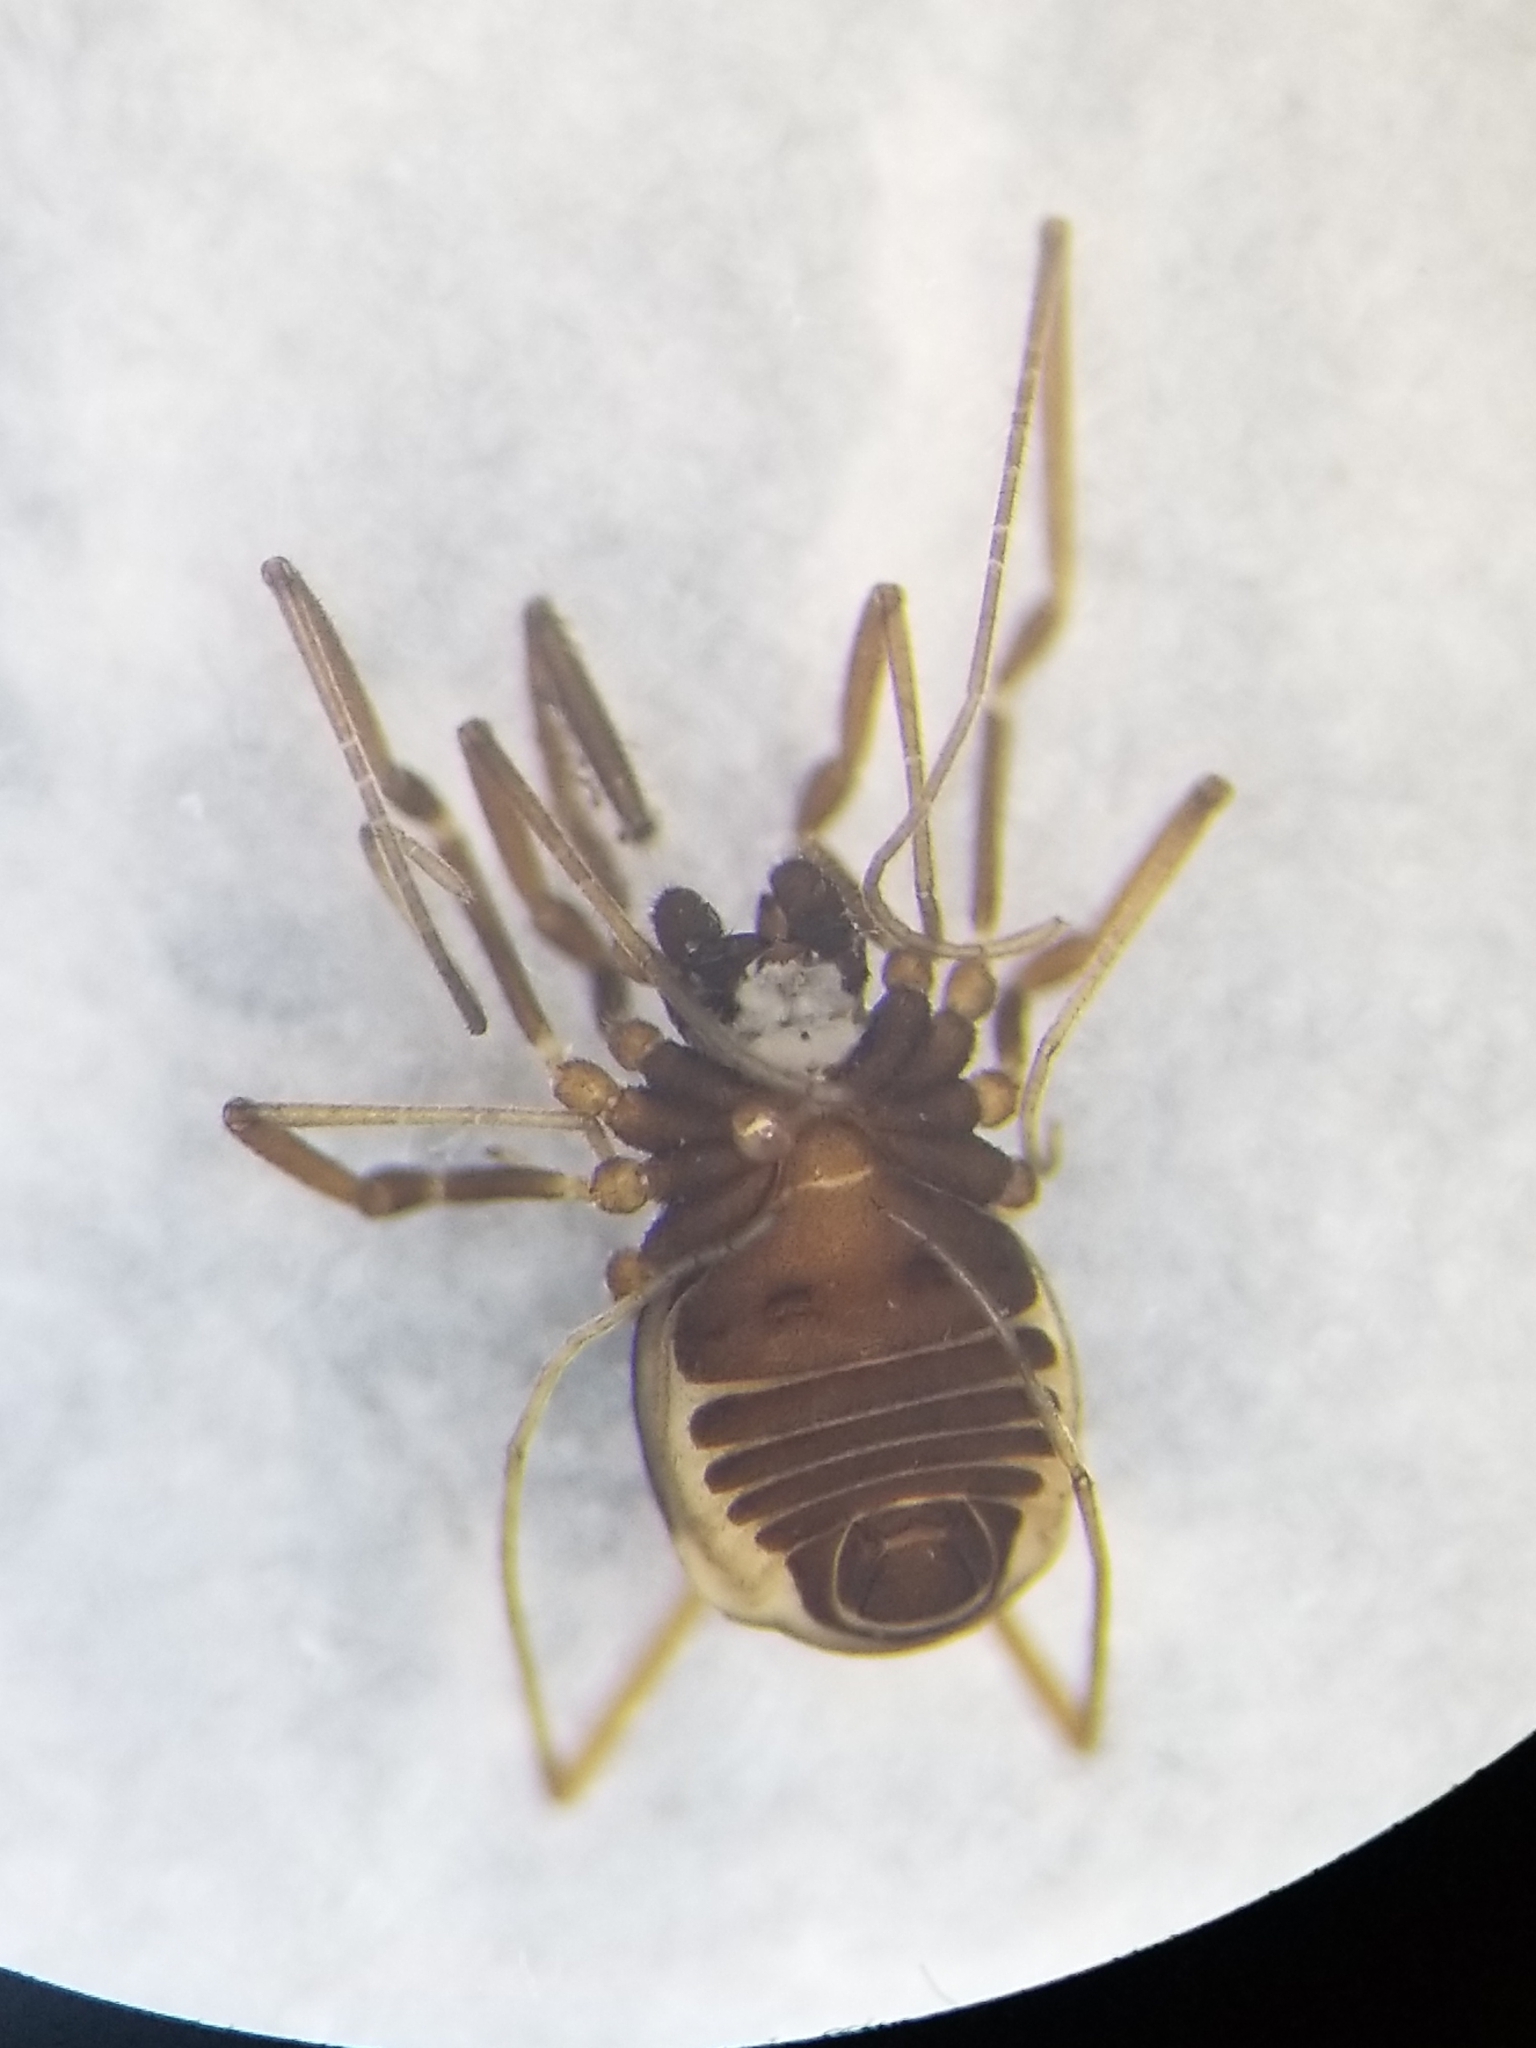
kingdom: Animalia
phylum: Arthropoda
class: Arachnida
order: Opiliones
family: Taracidae
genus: Hesperonemastoma
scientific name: Hesperonemastoma packardi
